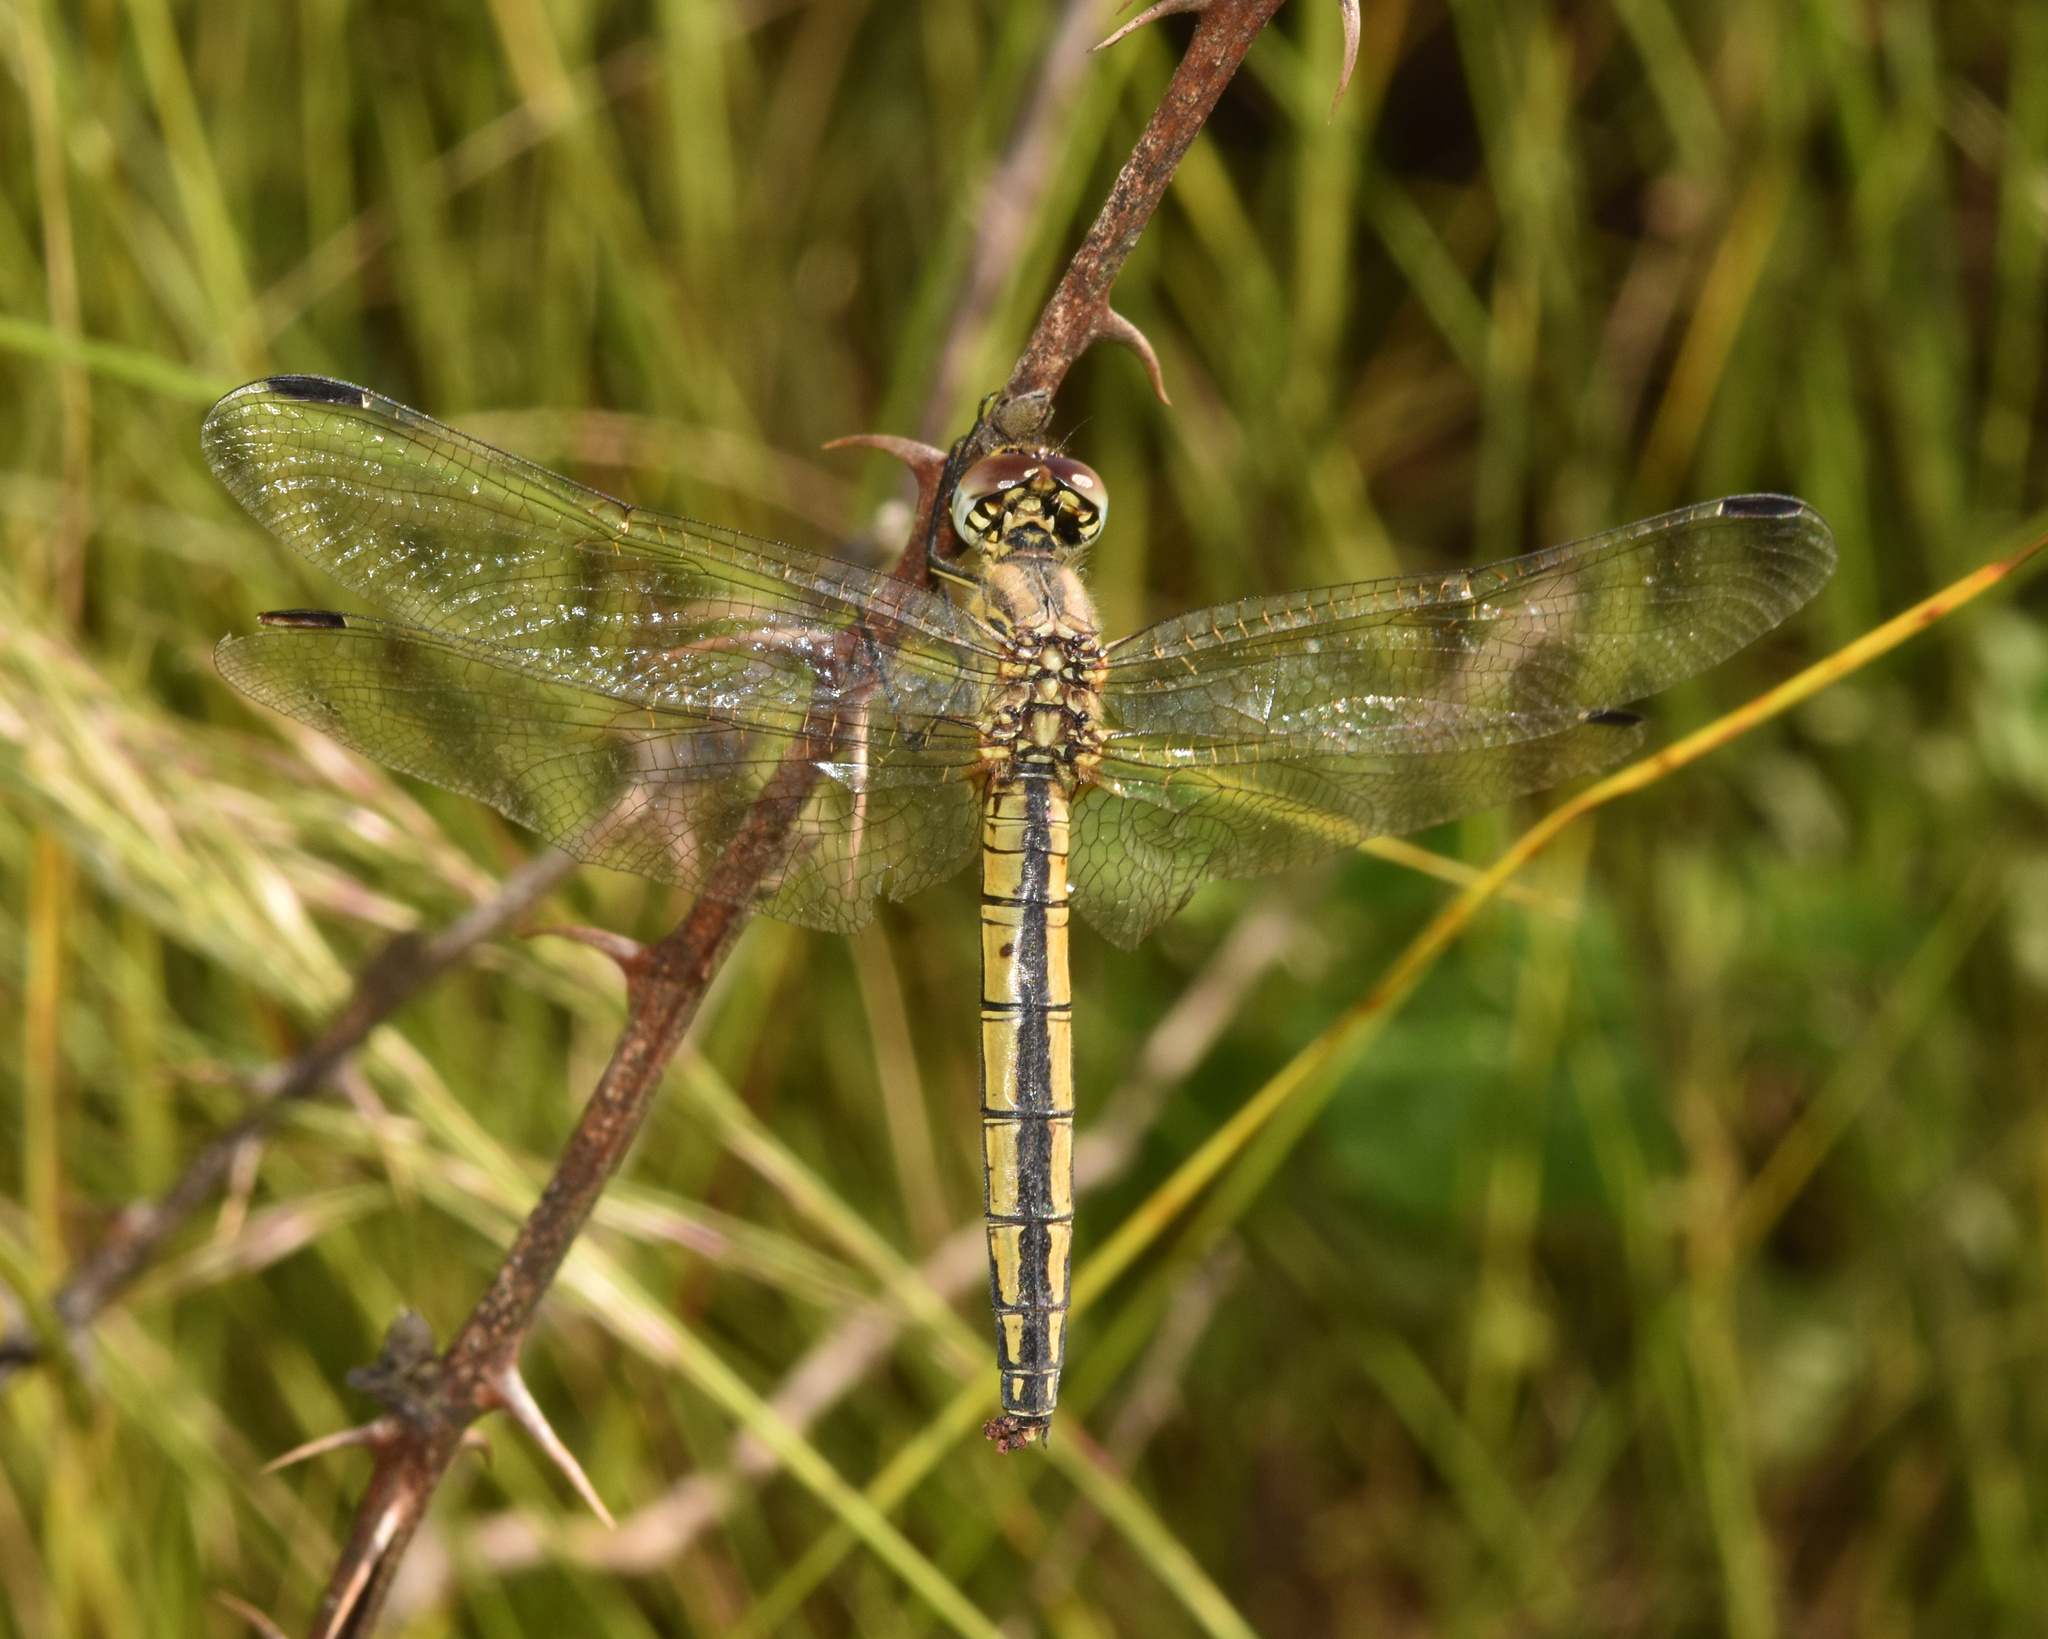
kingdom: Animalia
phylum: Arthropoda
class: Insecta
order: Odonata
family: Libellulidae
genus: Trithemis
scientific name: Trithemis dorsalis
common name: Highland dropwing
